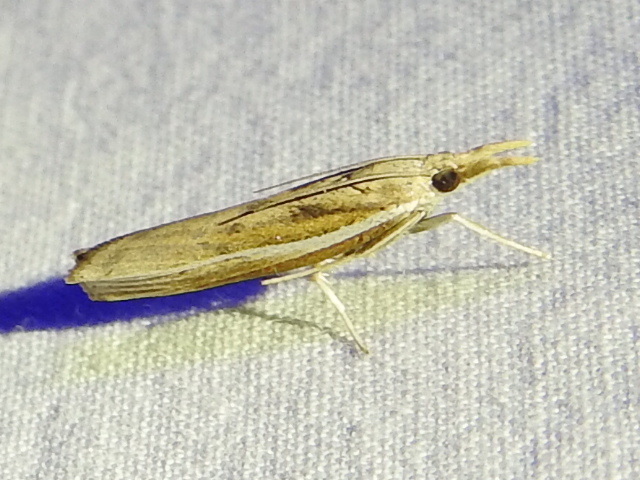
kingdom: Animalia
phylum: Arthropoda
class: Insecta
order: Lepidoptera
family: Crambidae
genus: Fissicrambus
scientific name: Fissicrambus profanellus
